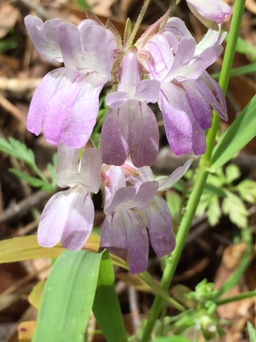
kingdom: Plantae
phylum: Tracheophyta
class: Magnoliopsida
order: Lamiales
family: Plantaginaceae
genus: Collinsia
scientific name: Collinsia heterophylla
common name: Chinese-houses
